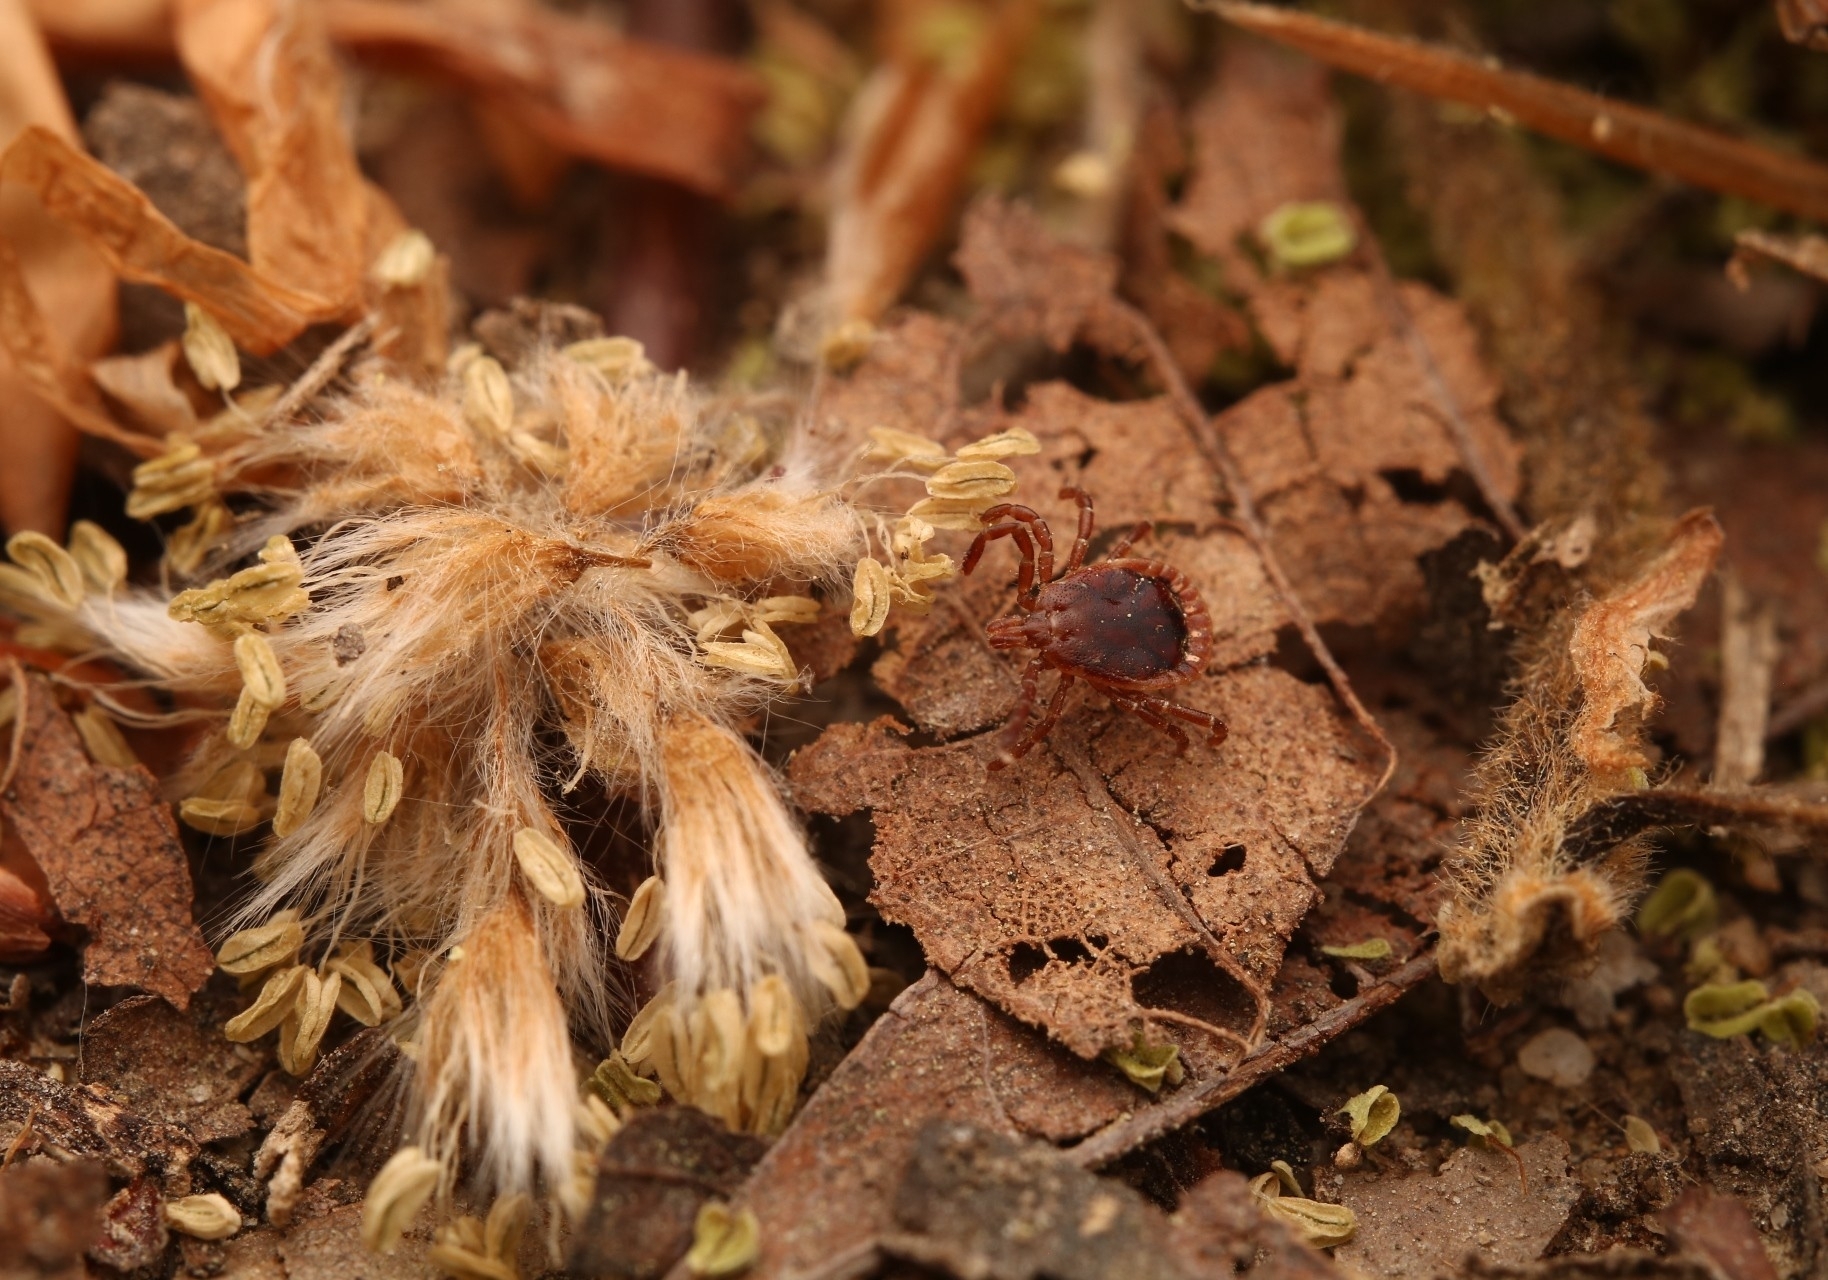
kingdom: Animalia
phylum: Arthropoda
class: Arachnida
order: Ixodida
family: Ixodidae
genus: Amblyomma
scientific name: Amblyomma americanum
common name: Lone star tick
